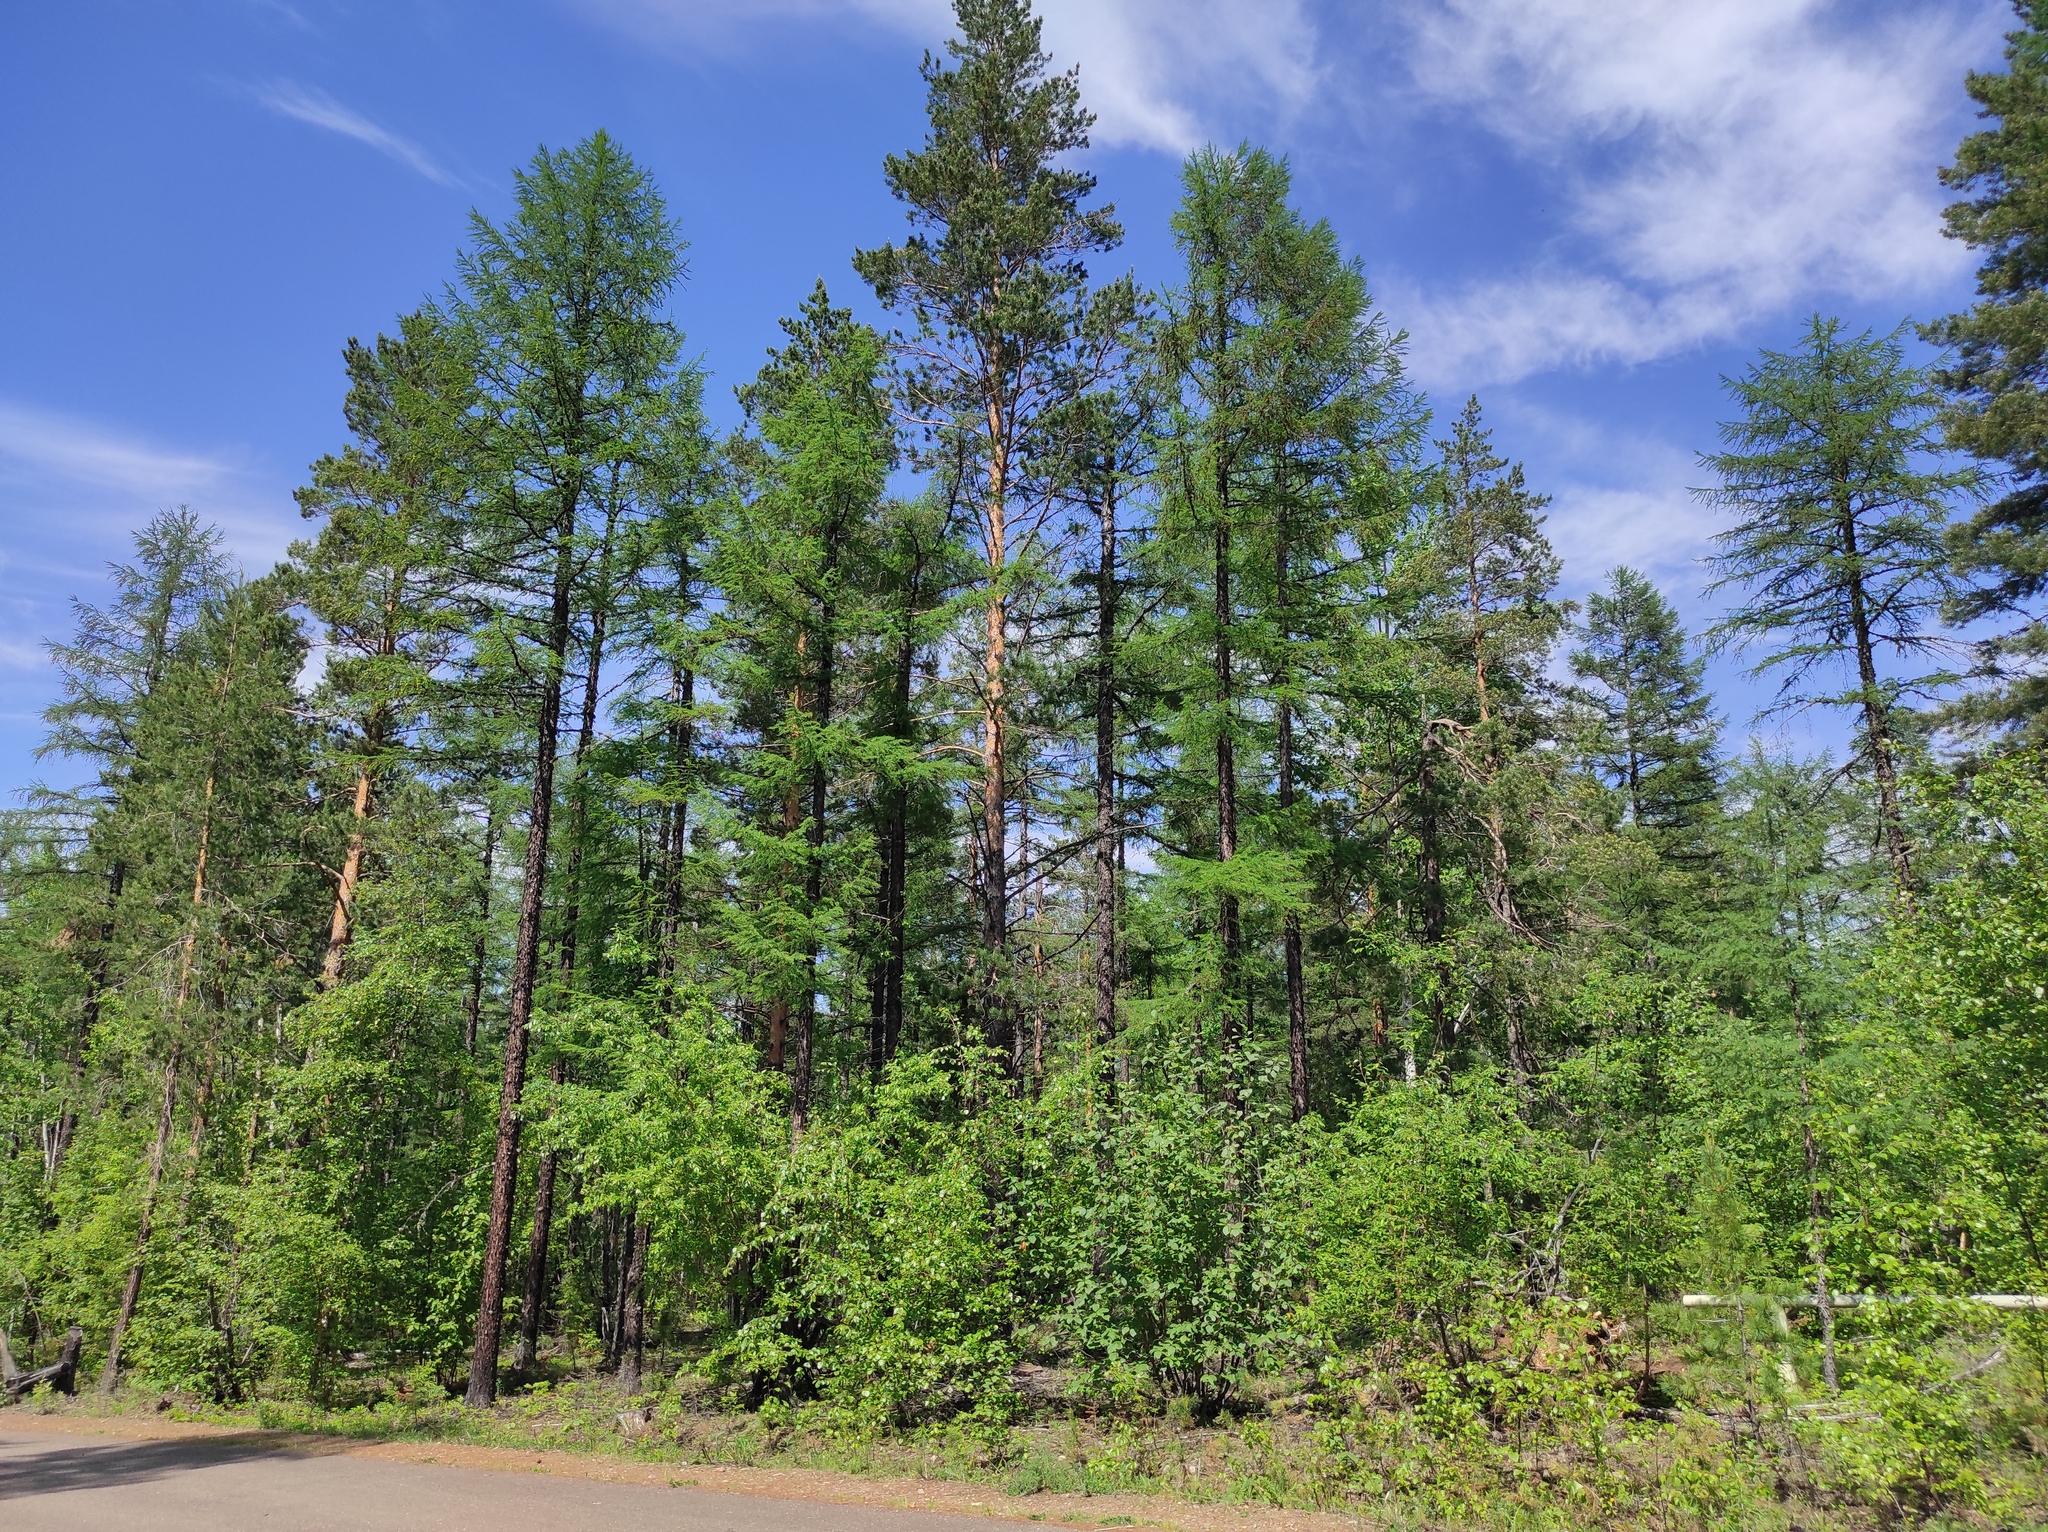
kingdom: Plantae
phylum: Tracheophyta
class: Pinopsida
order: Pinales
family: Pinaceae
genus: Pinus
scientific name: Pinus sylvestris
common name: Scots pine
